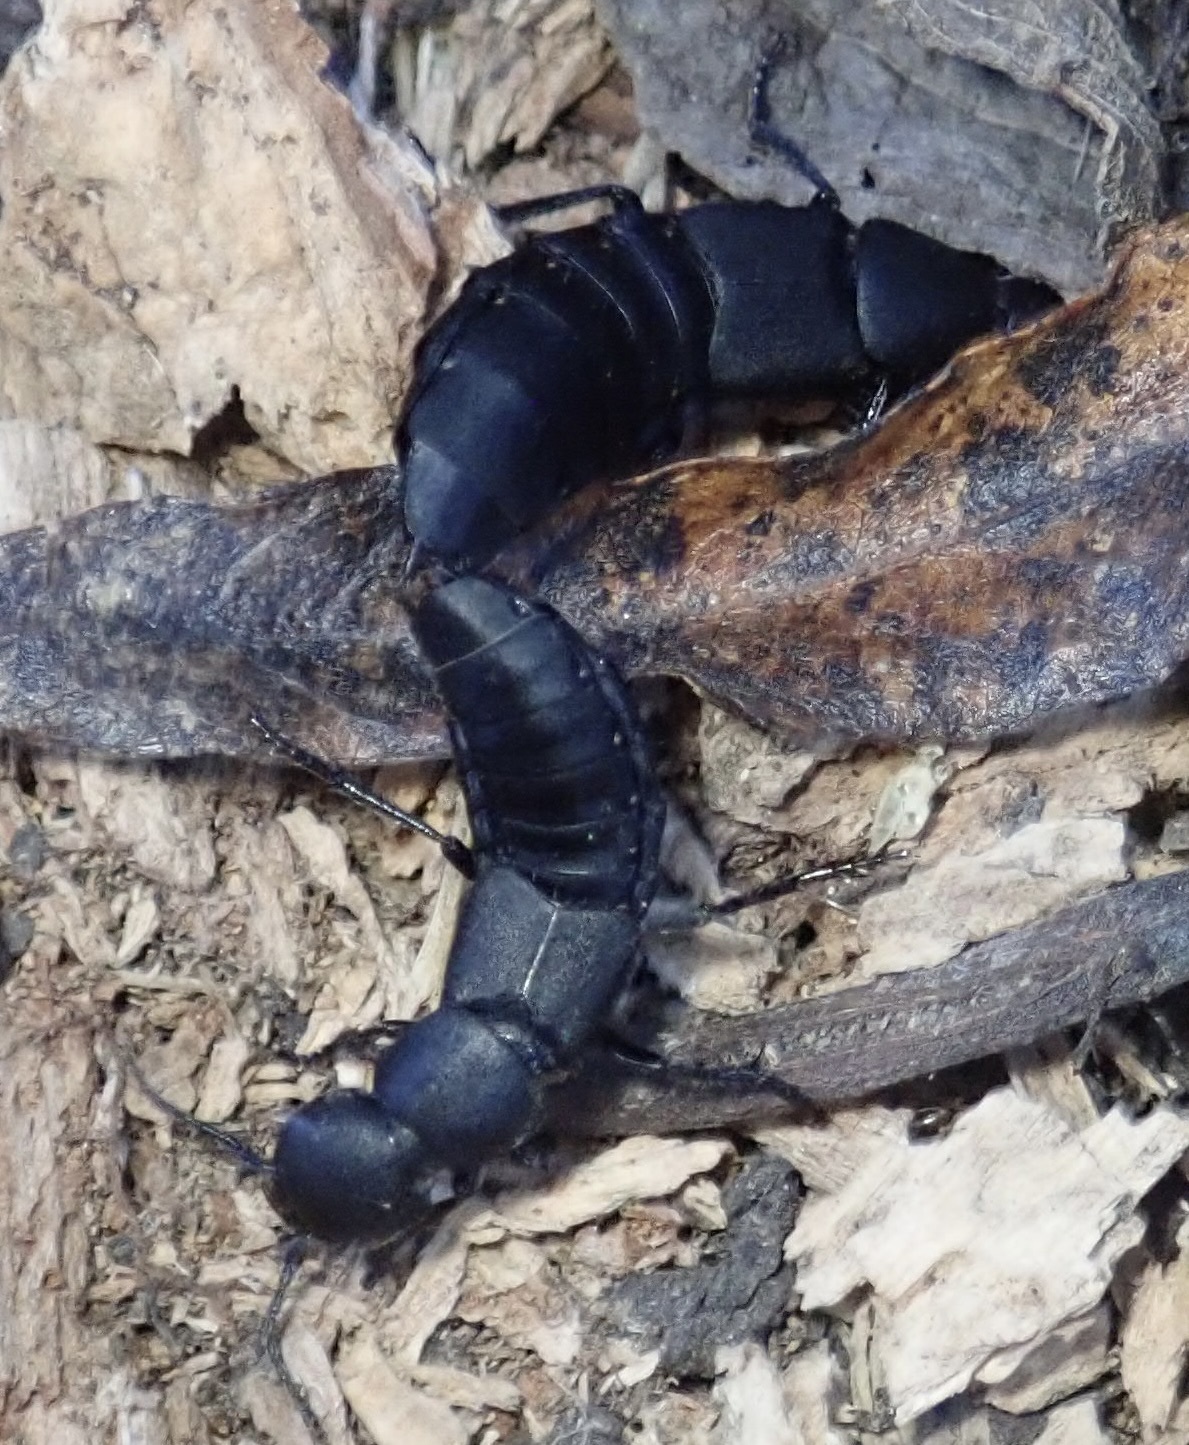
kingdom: Animalia
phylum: Arthropoda
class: Insecta
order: Coleoptera
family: Staphylinidae
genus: Ocypus
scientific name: Ocypus olens
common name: Devil's coach-horse
